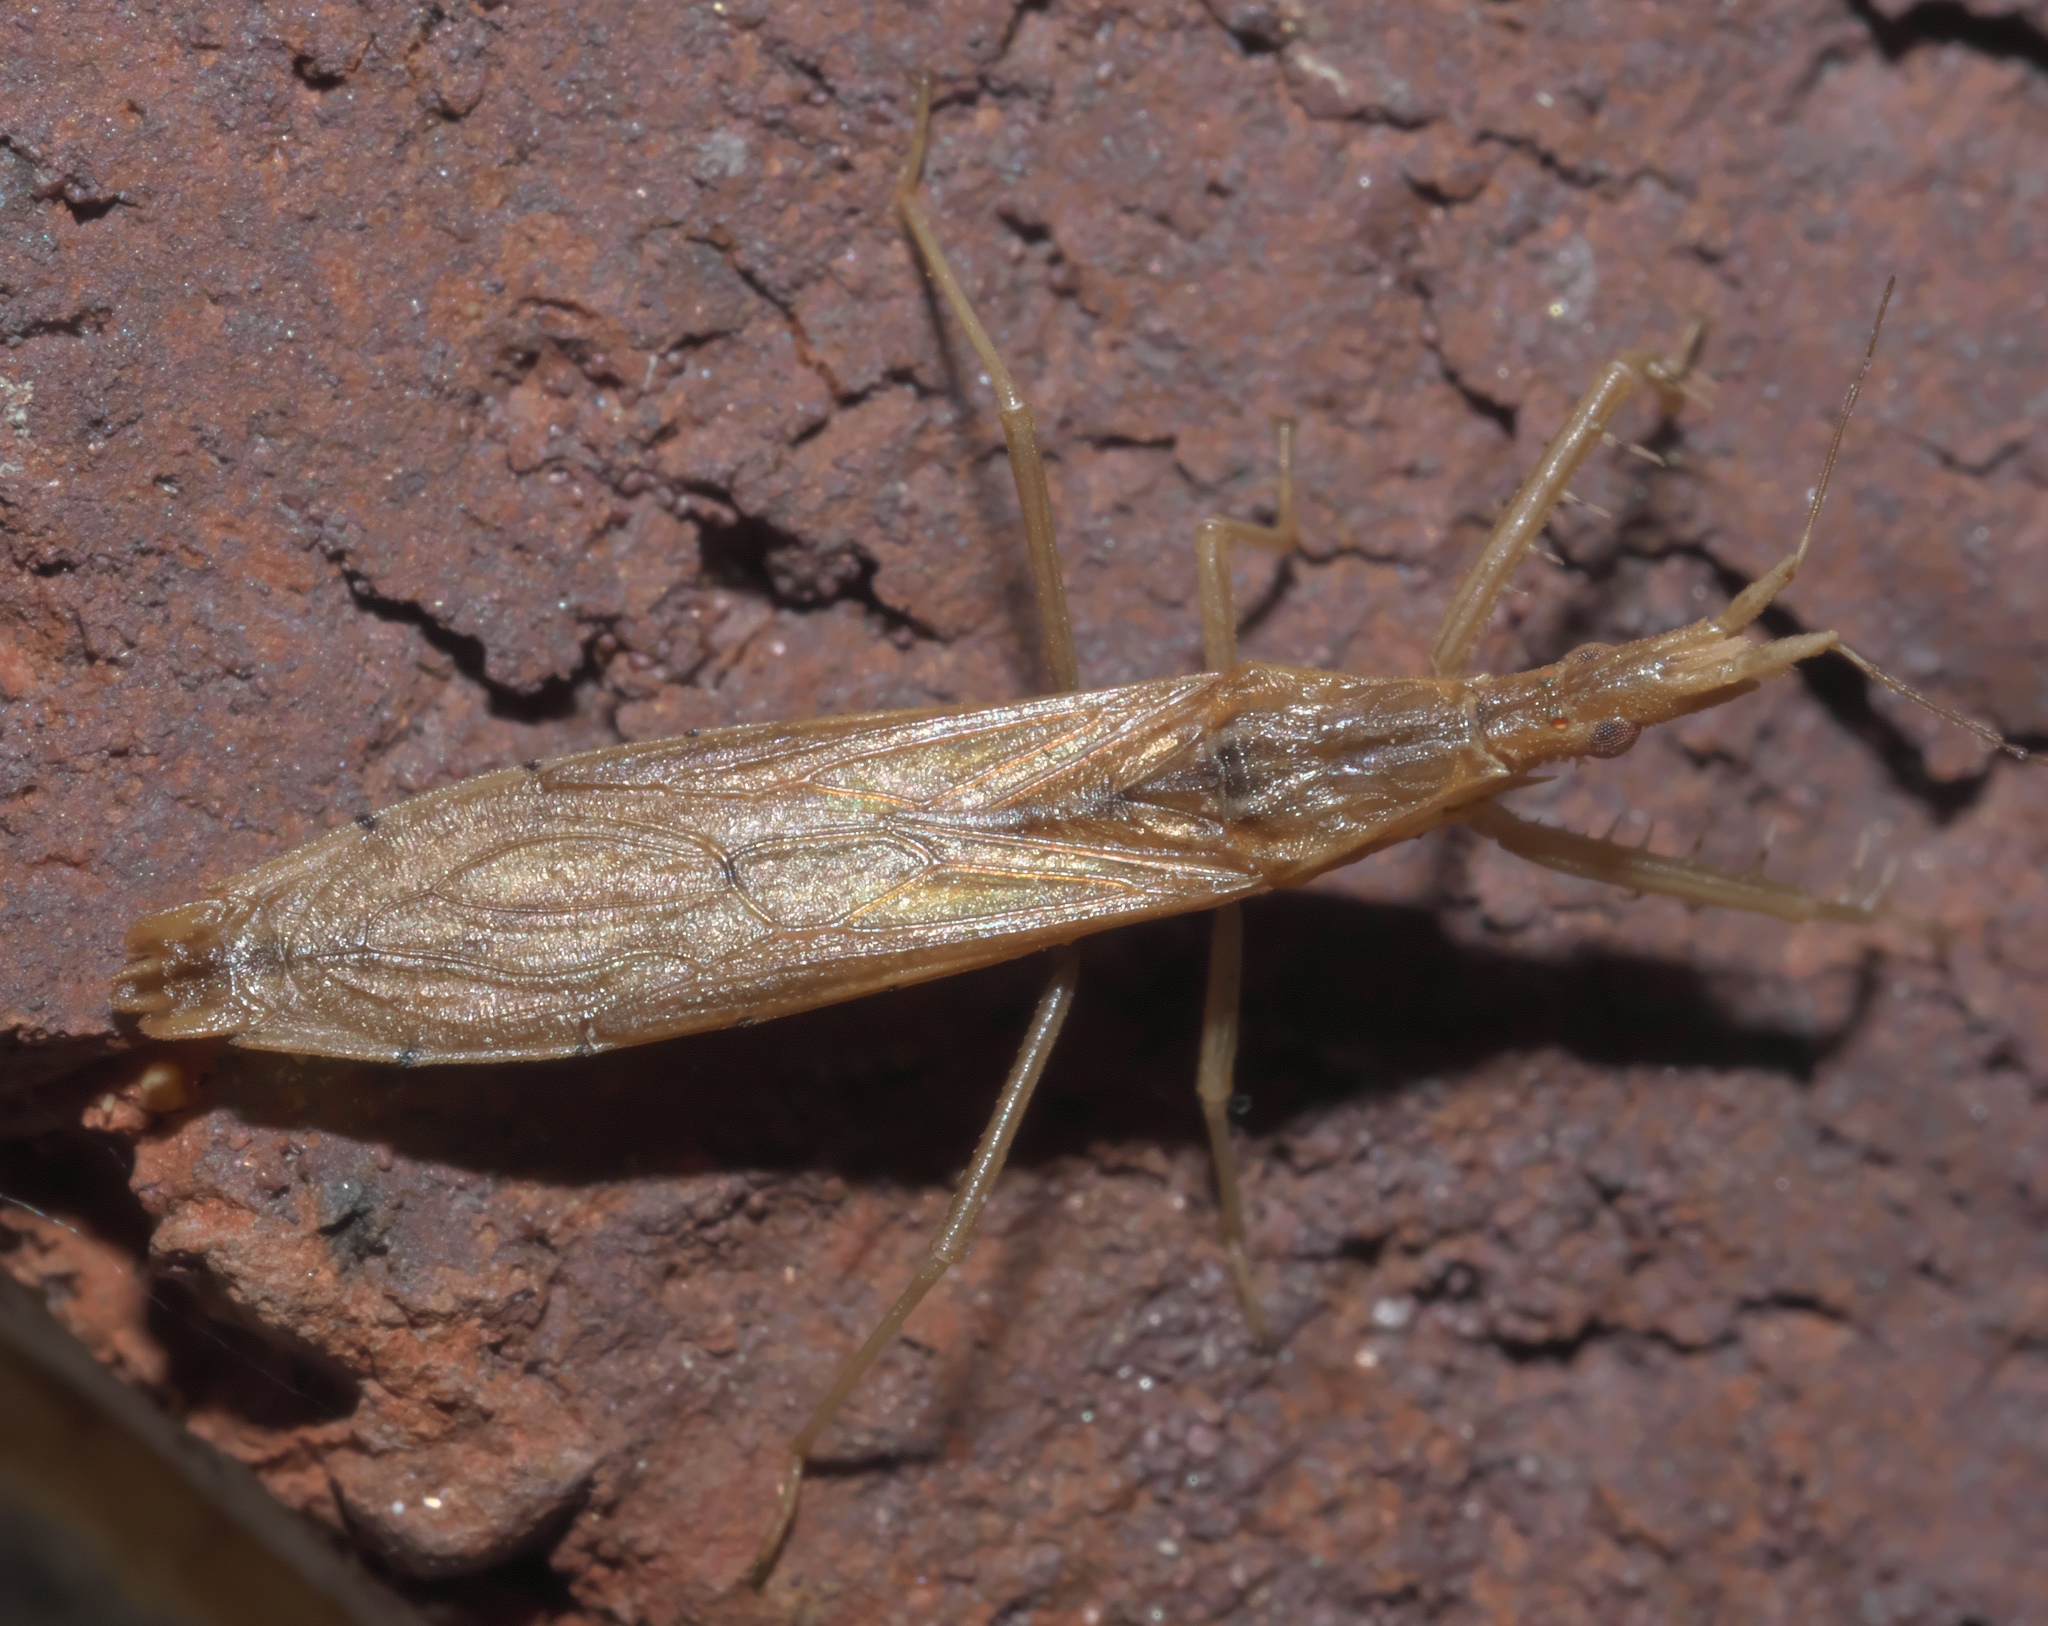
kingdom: Animalia
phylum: Arthropoda
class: Insecta
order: Hemiptera
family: Reduviidae
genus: Pnirontis
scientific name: Pnirontis modesta
